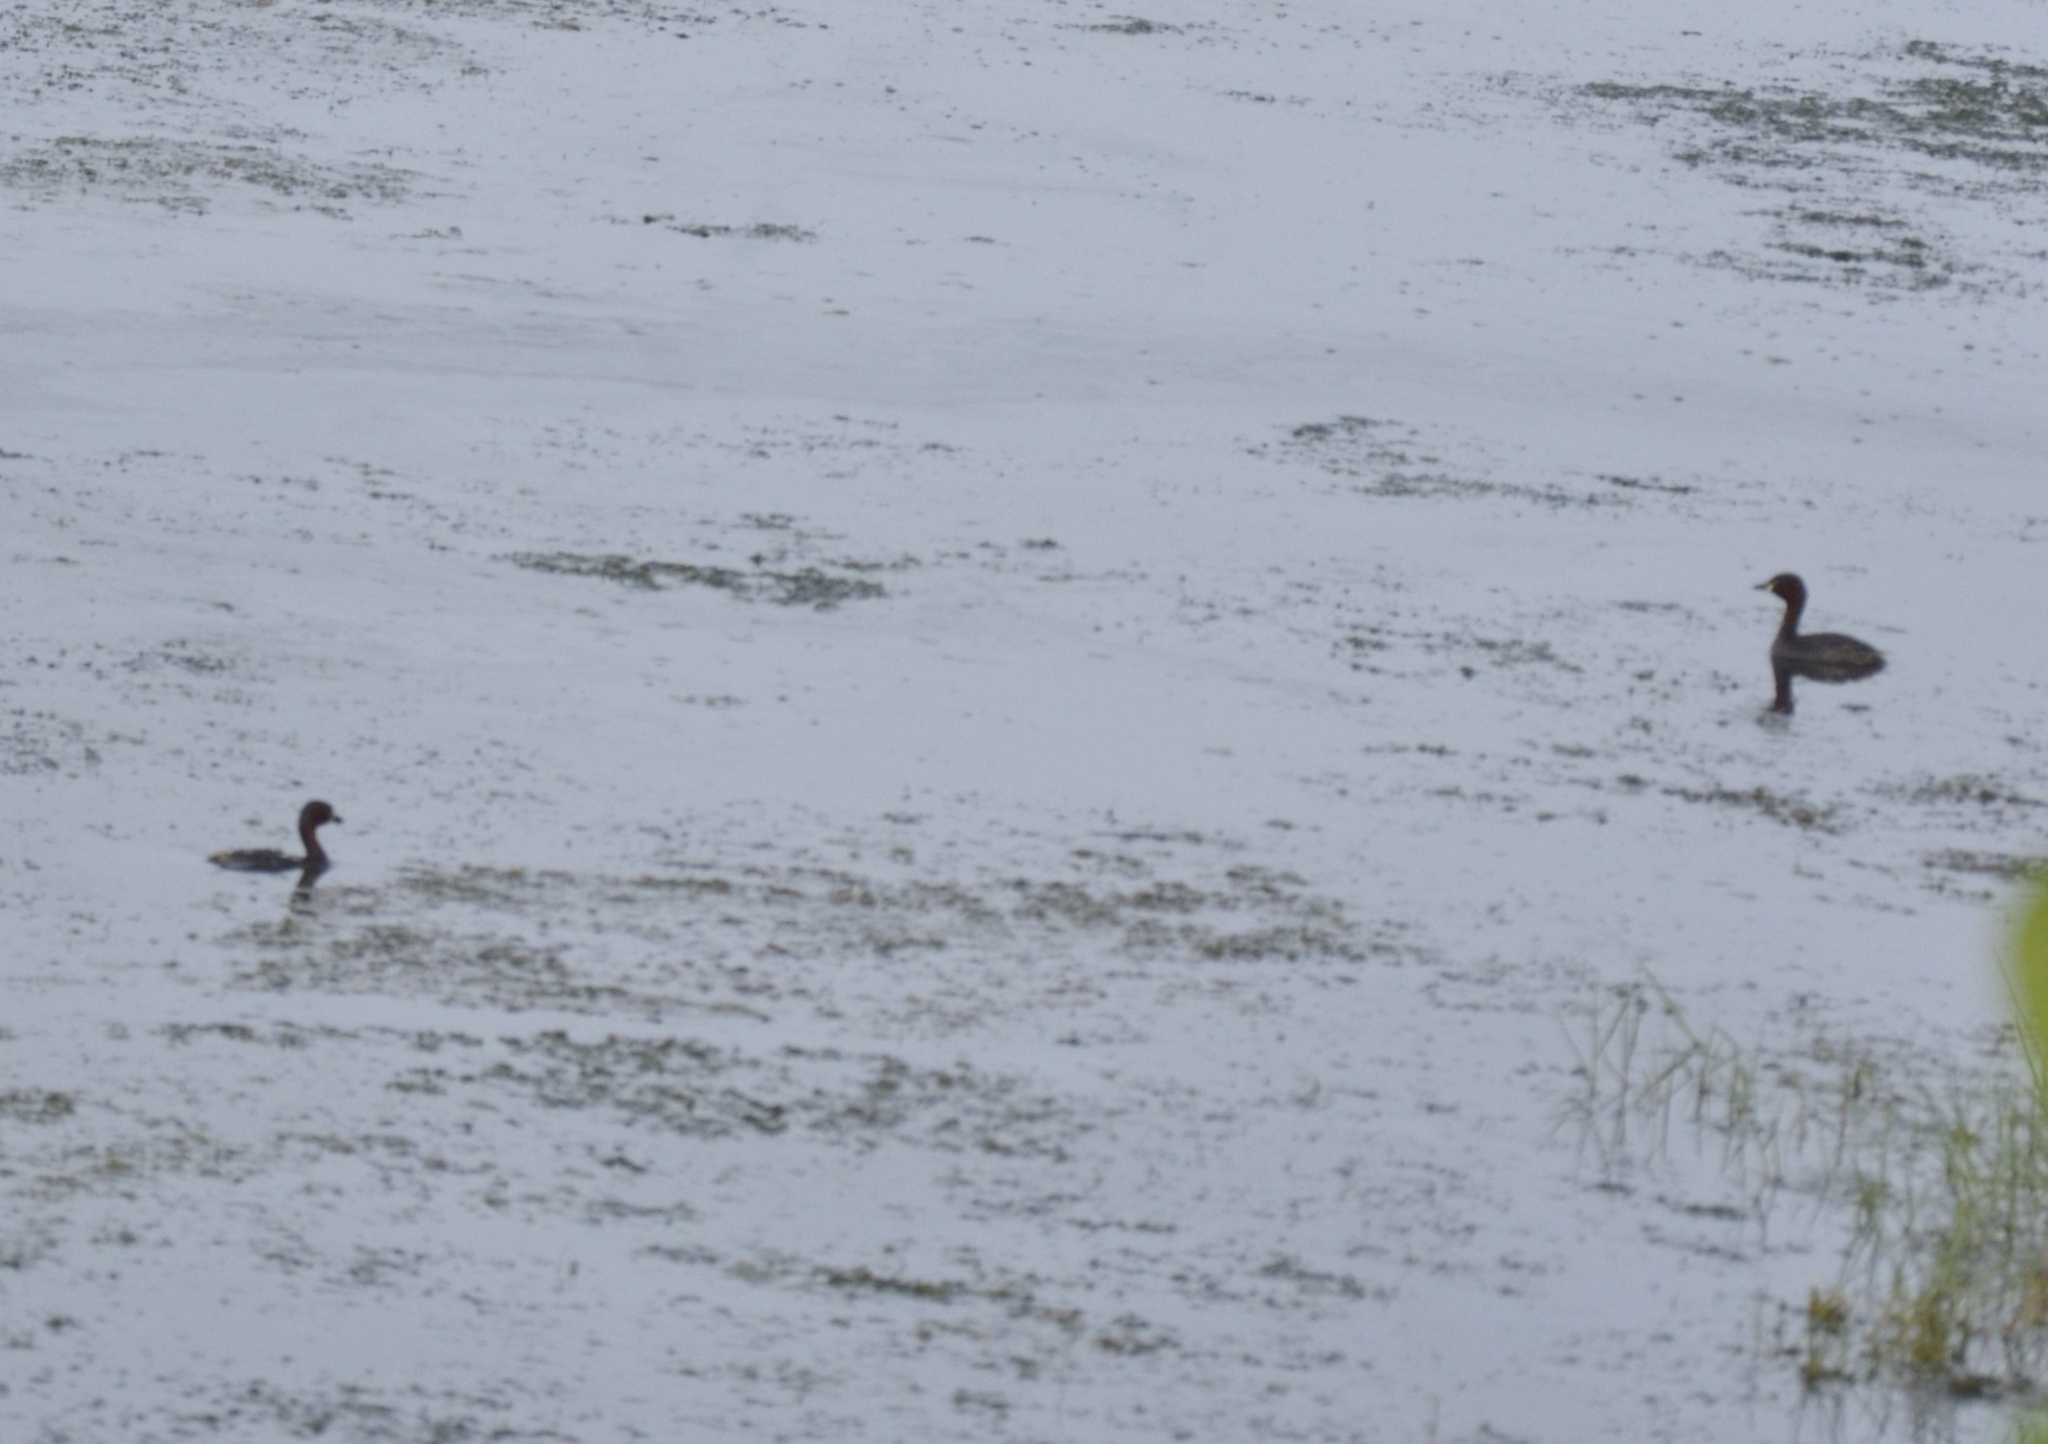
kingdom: Animalia
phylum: Chordata
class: Aves
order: Podicipediformes
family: Podicipedidae
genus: Tachybaptus
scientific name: Tachybaptus ruficollis
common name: Little grebe
